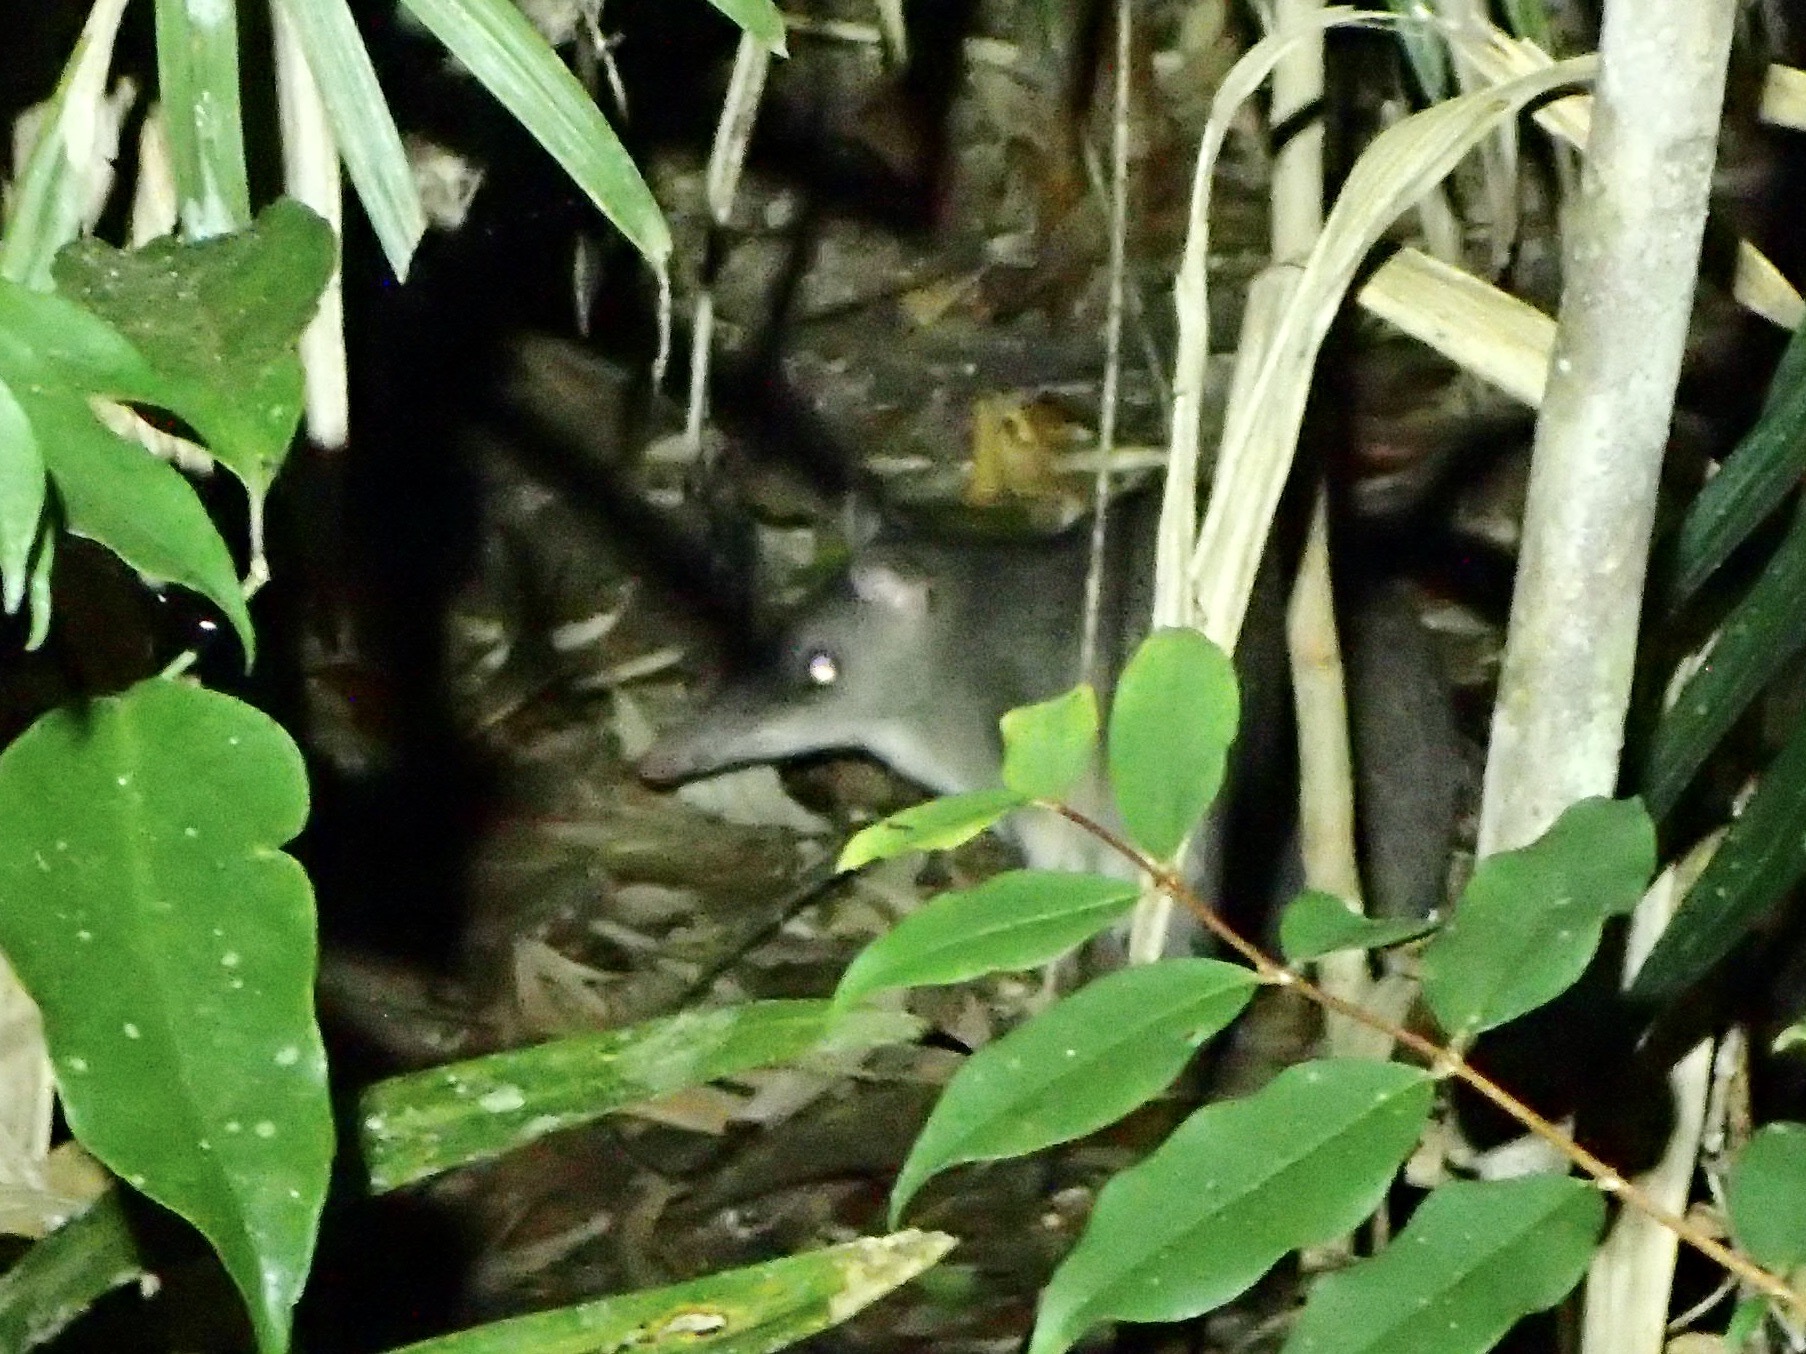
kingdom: Animalia
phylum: Chordata
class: Mammalia
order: Peramelemorphia
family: Peramelidae
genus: Perameles
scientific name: Perameles pallescens
